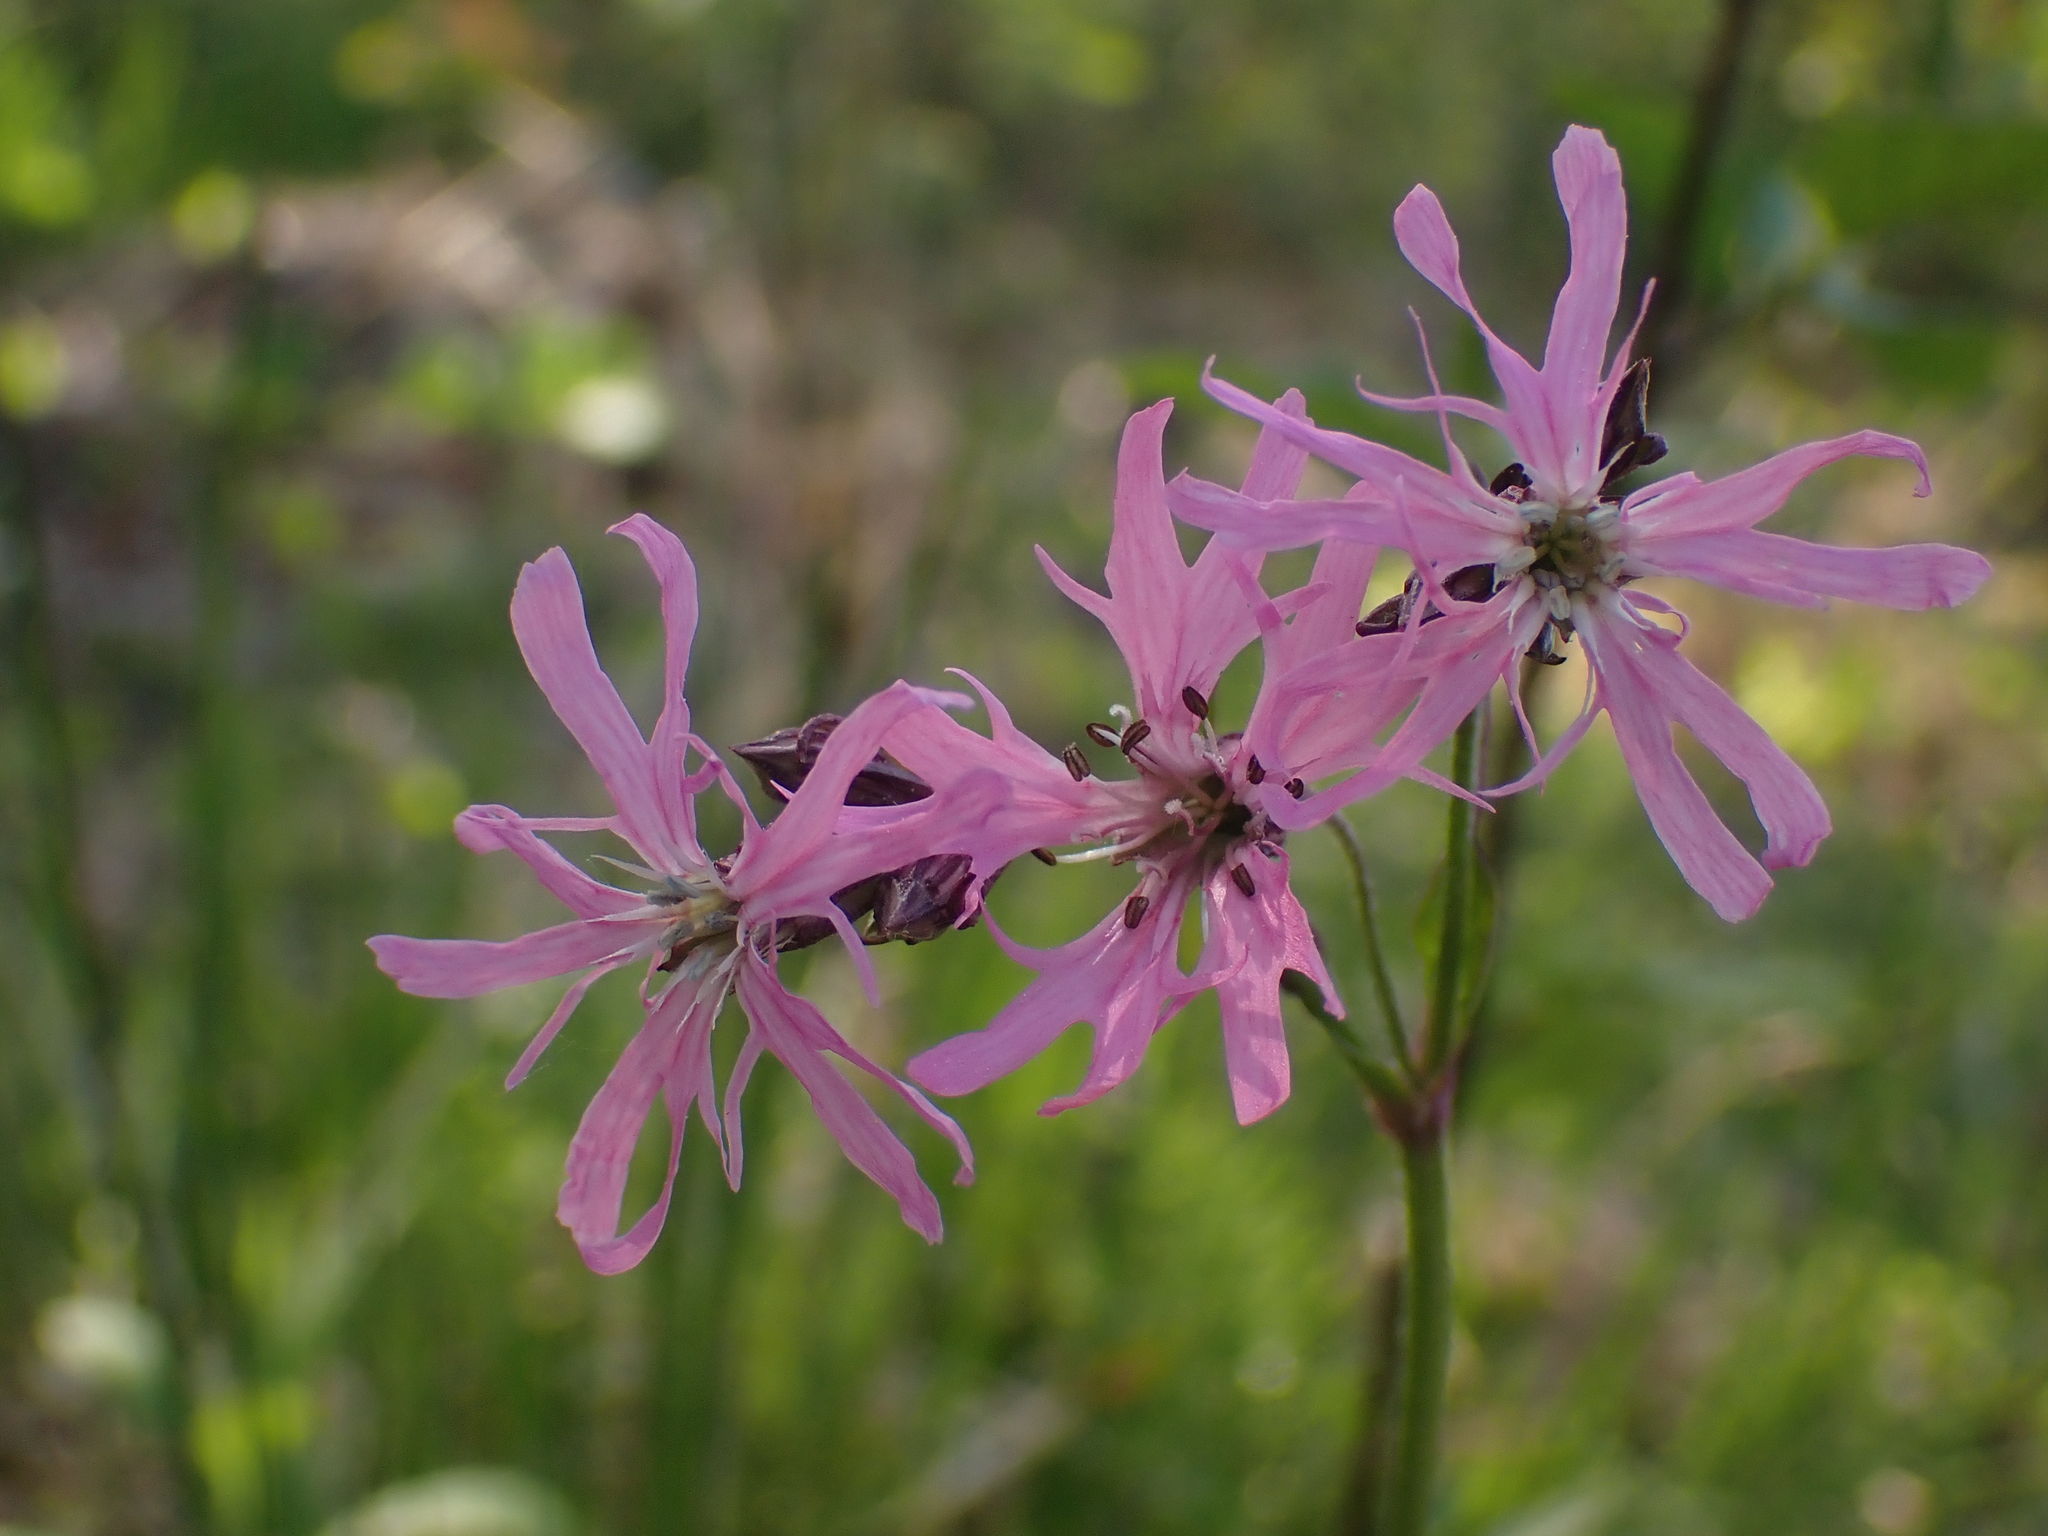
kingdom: Plantae
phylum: Tracheophyta
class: Magnoliopsida
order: Caryophyllales
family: Caryophyllaceae
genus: Silene
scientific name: Silene flos-cuculi
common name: Ragged-robin
